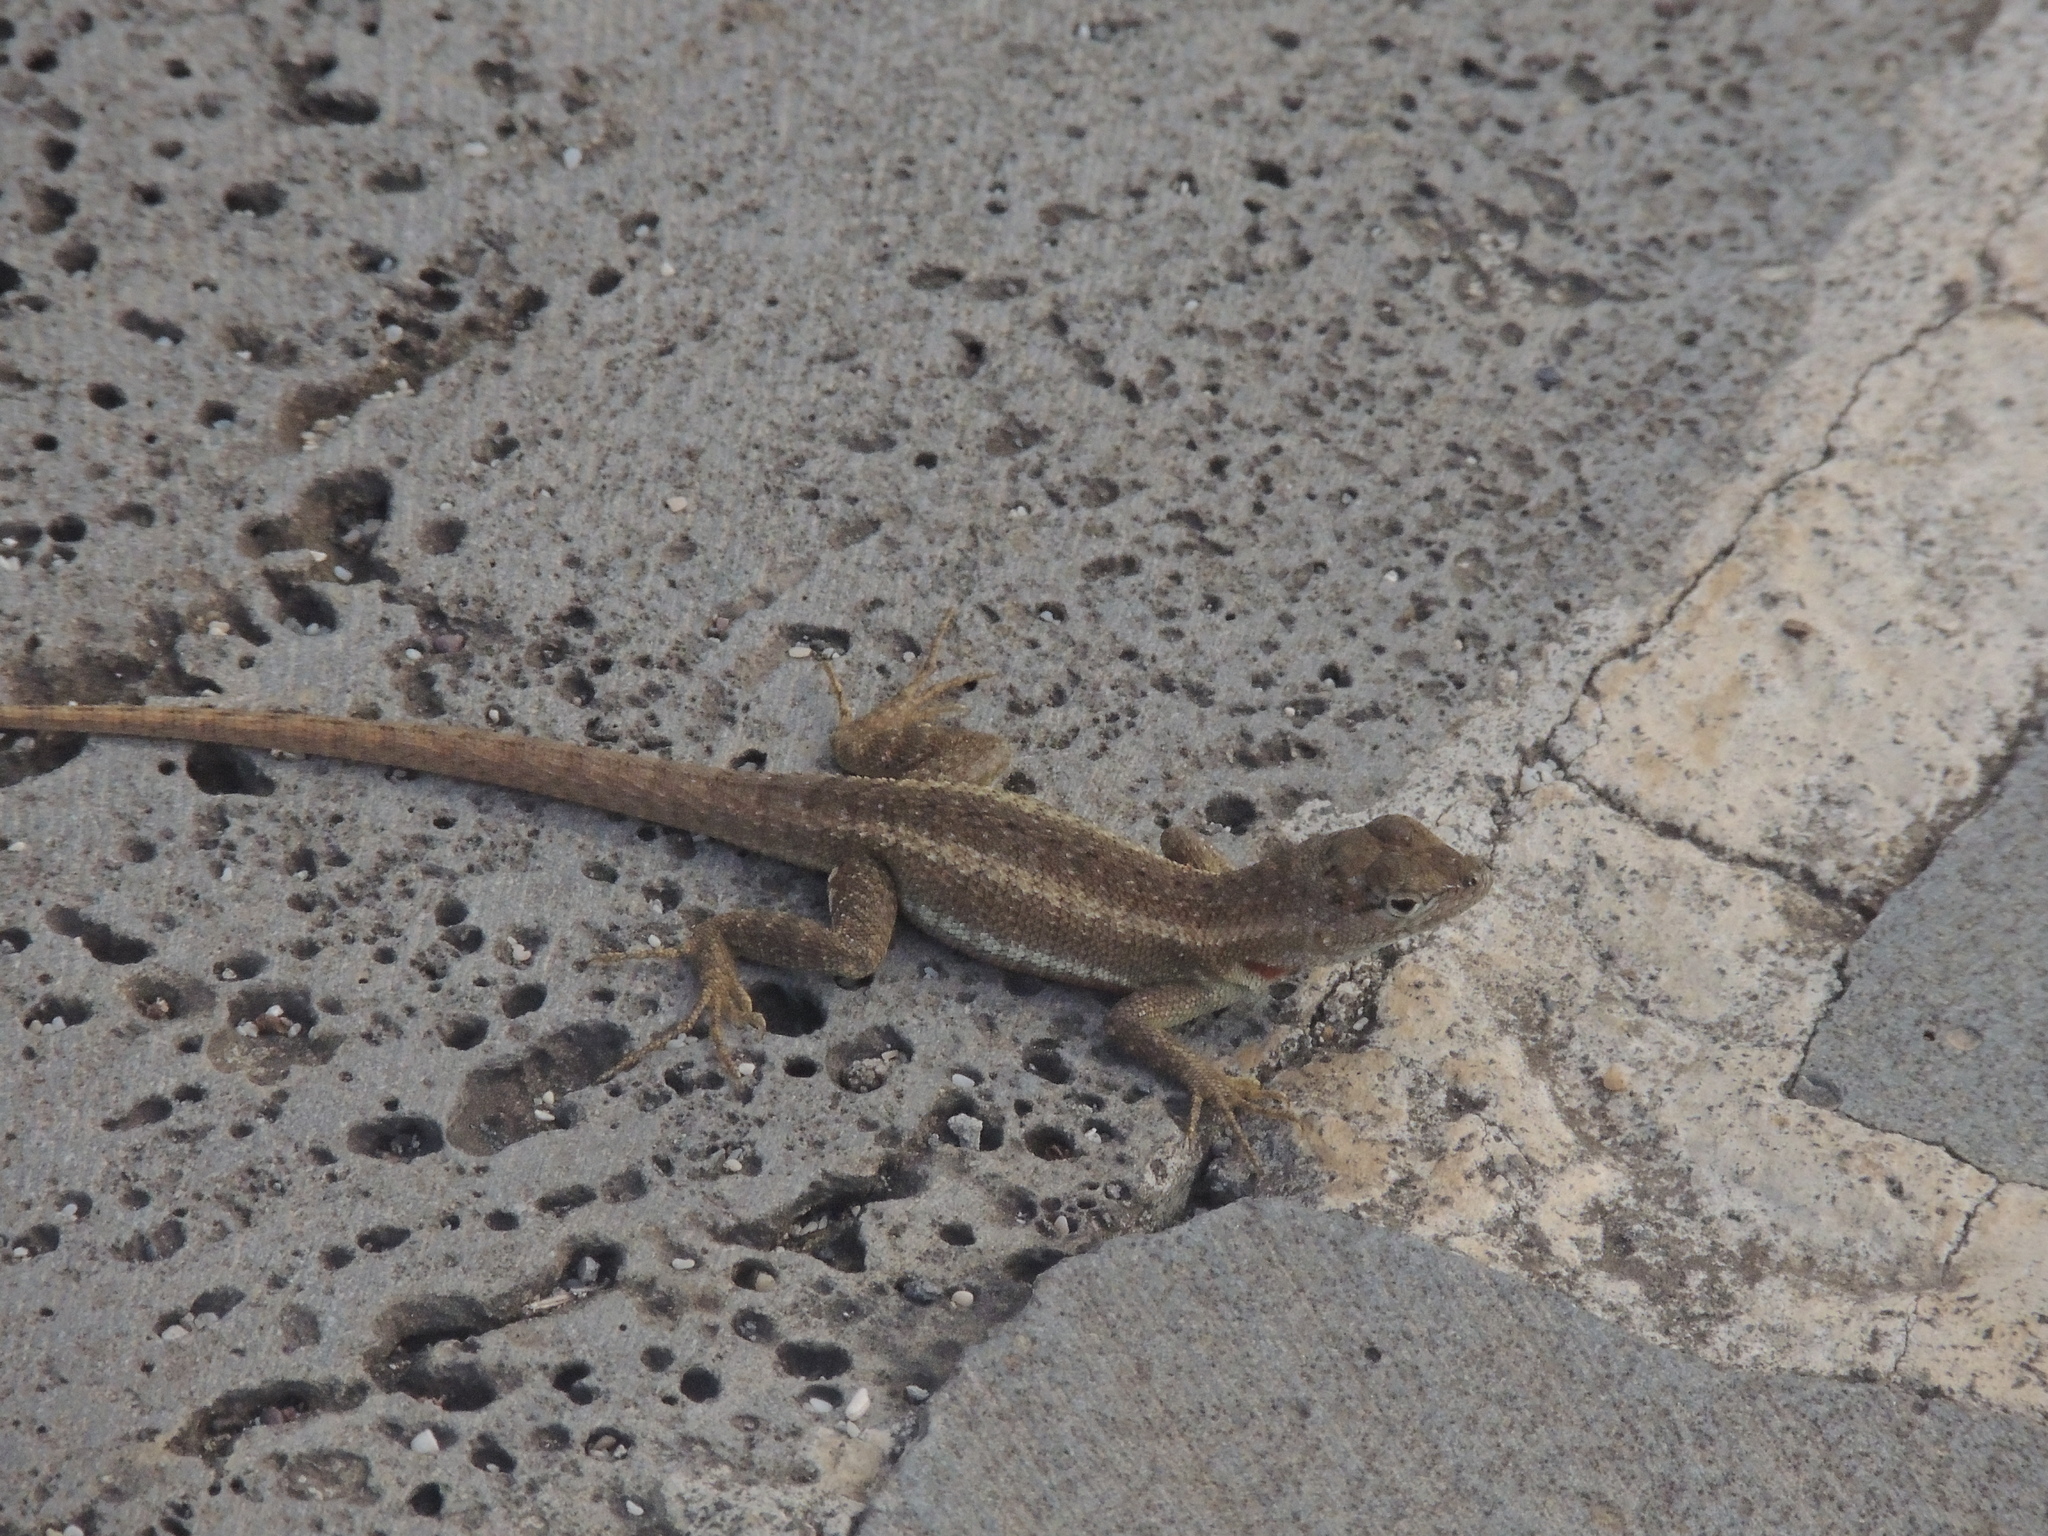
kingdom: Animalia
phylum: Chordata
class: Squamata
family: Tropiduridae
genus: Microlophus
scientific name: Microlophus bivittatus
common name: San cristobal lava lizard
